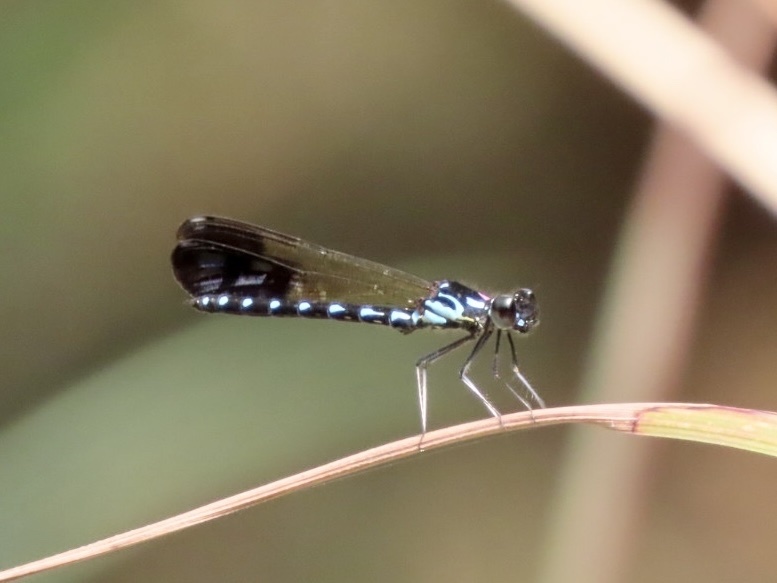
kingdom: Animalia
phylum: Arthropoda
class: Insecta
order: Odonata
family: Chlorocyphidae
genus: Heliocypha
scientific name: Heliocypha perforata
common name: Common blue jewel
